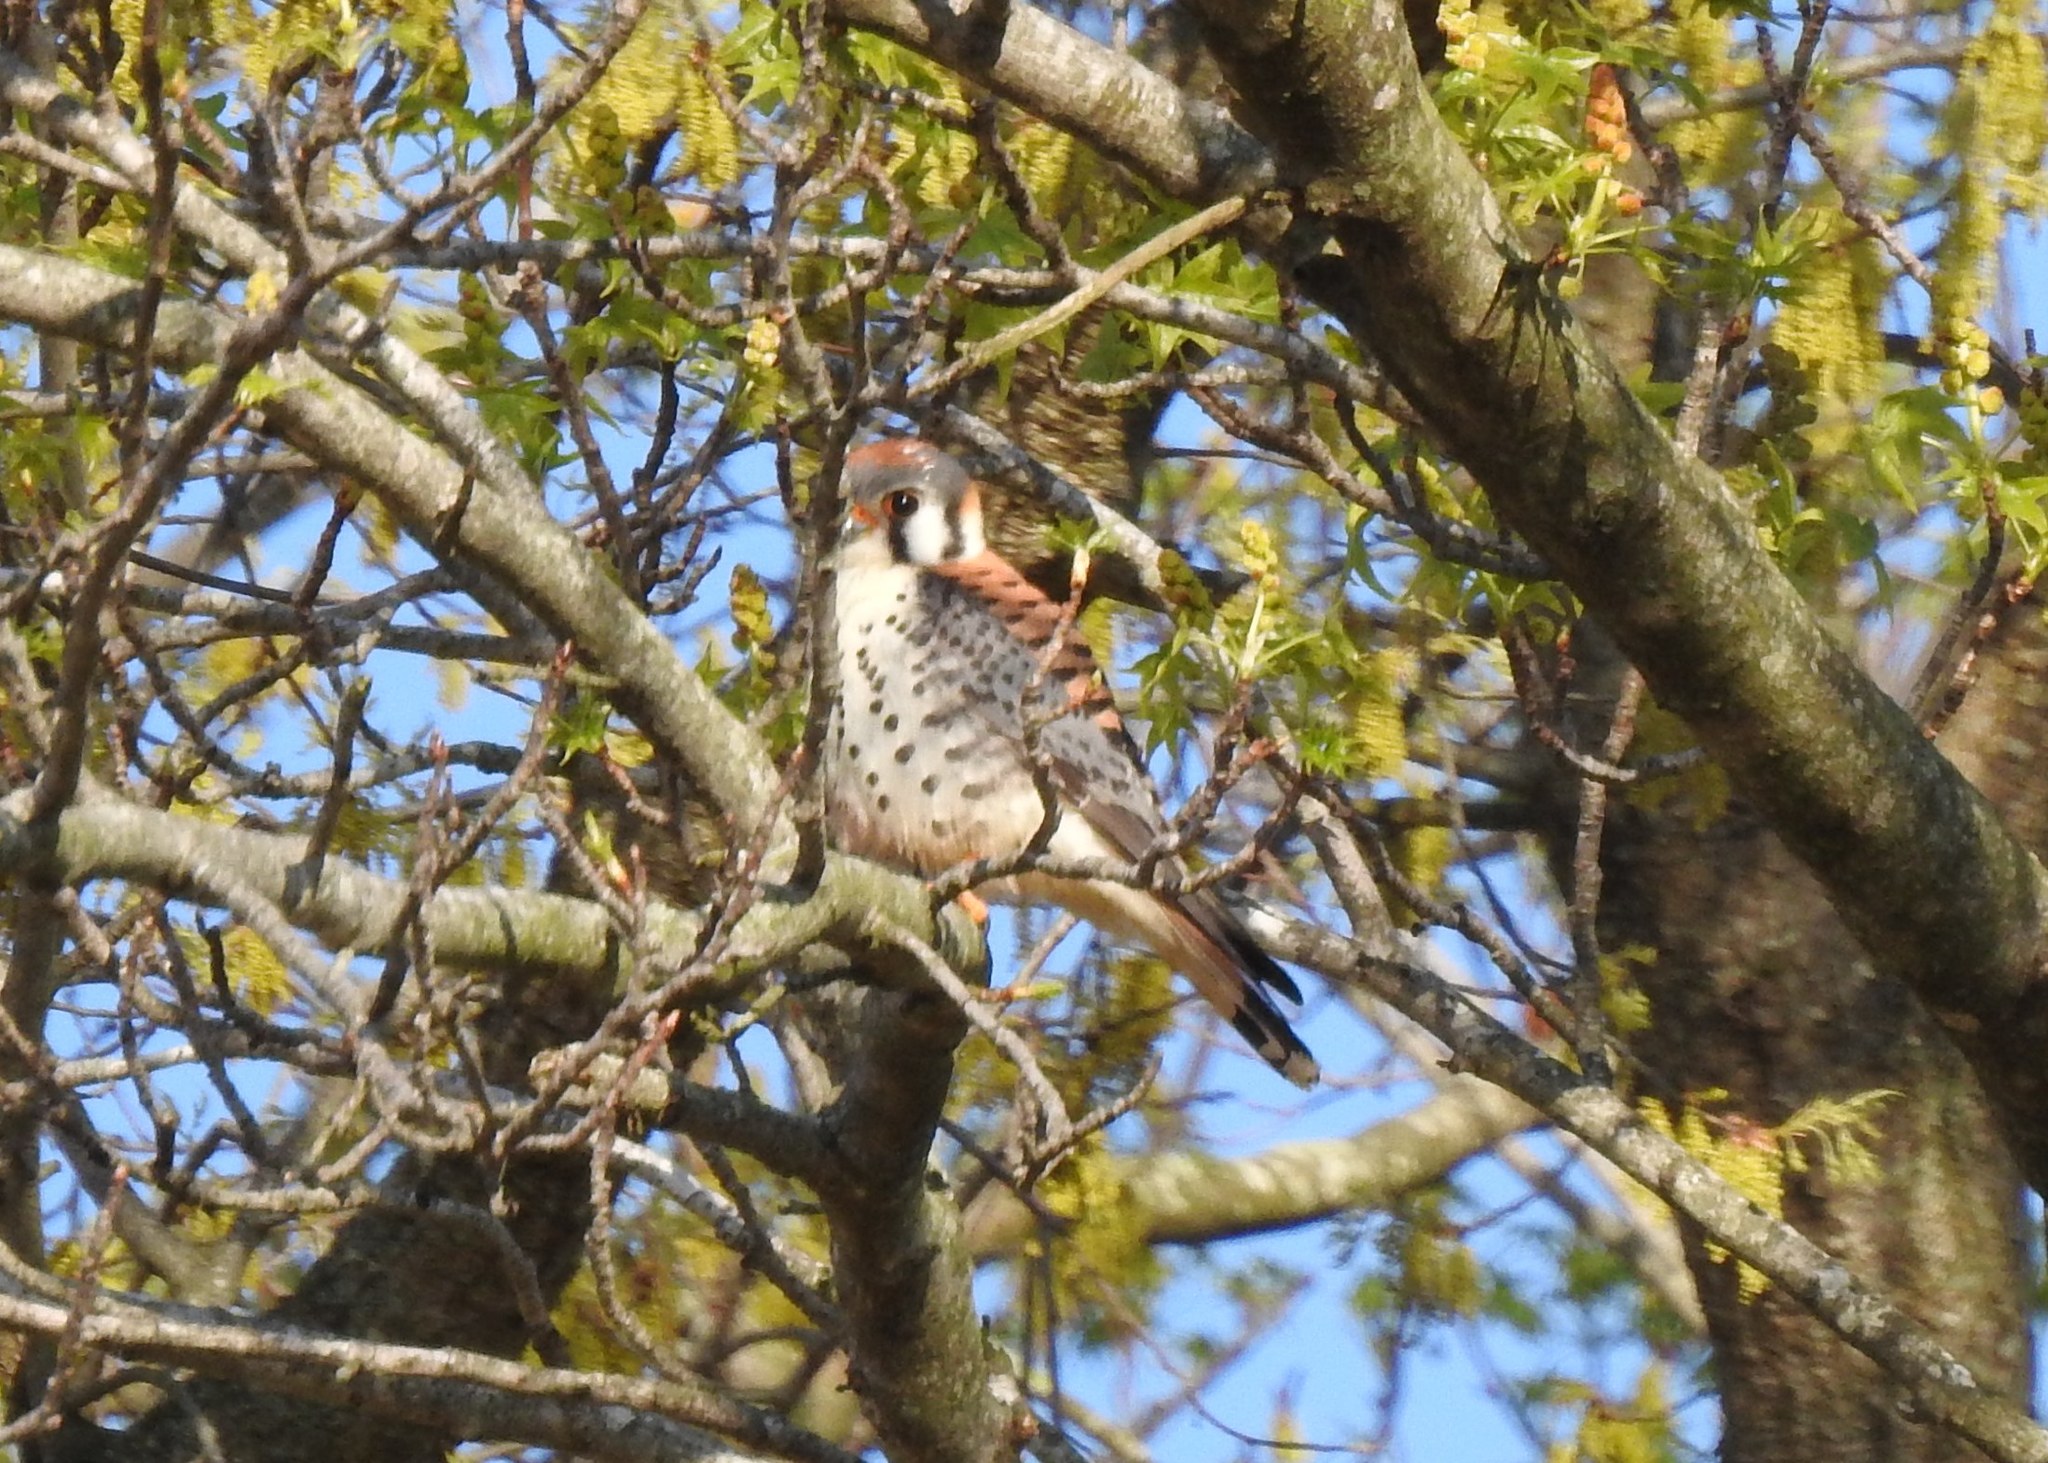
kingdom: Animalia
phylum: Chordata
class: Aves
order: Falconiformes
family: Falconidae
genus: Falco
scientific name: Falco sparverius
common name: American kestrel
